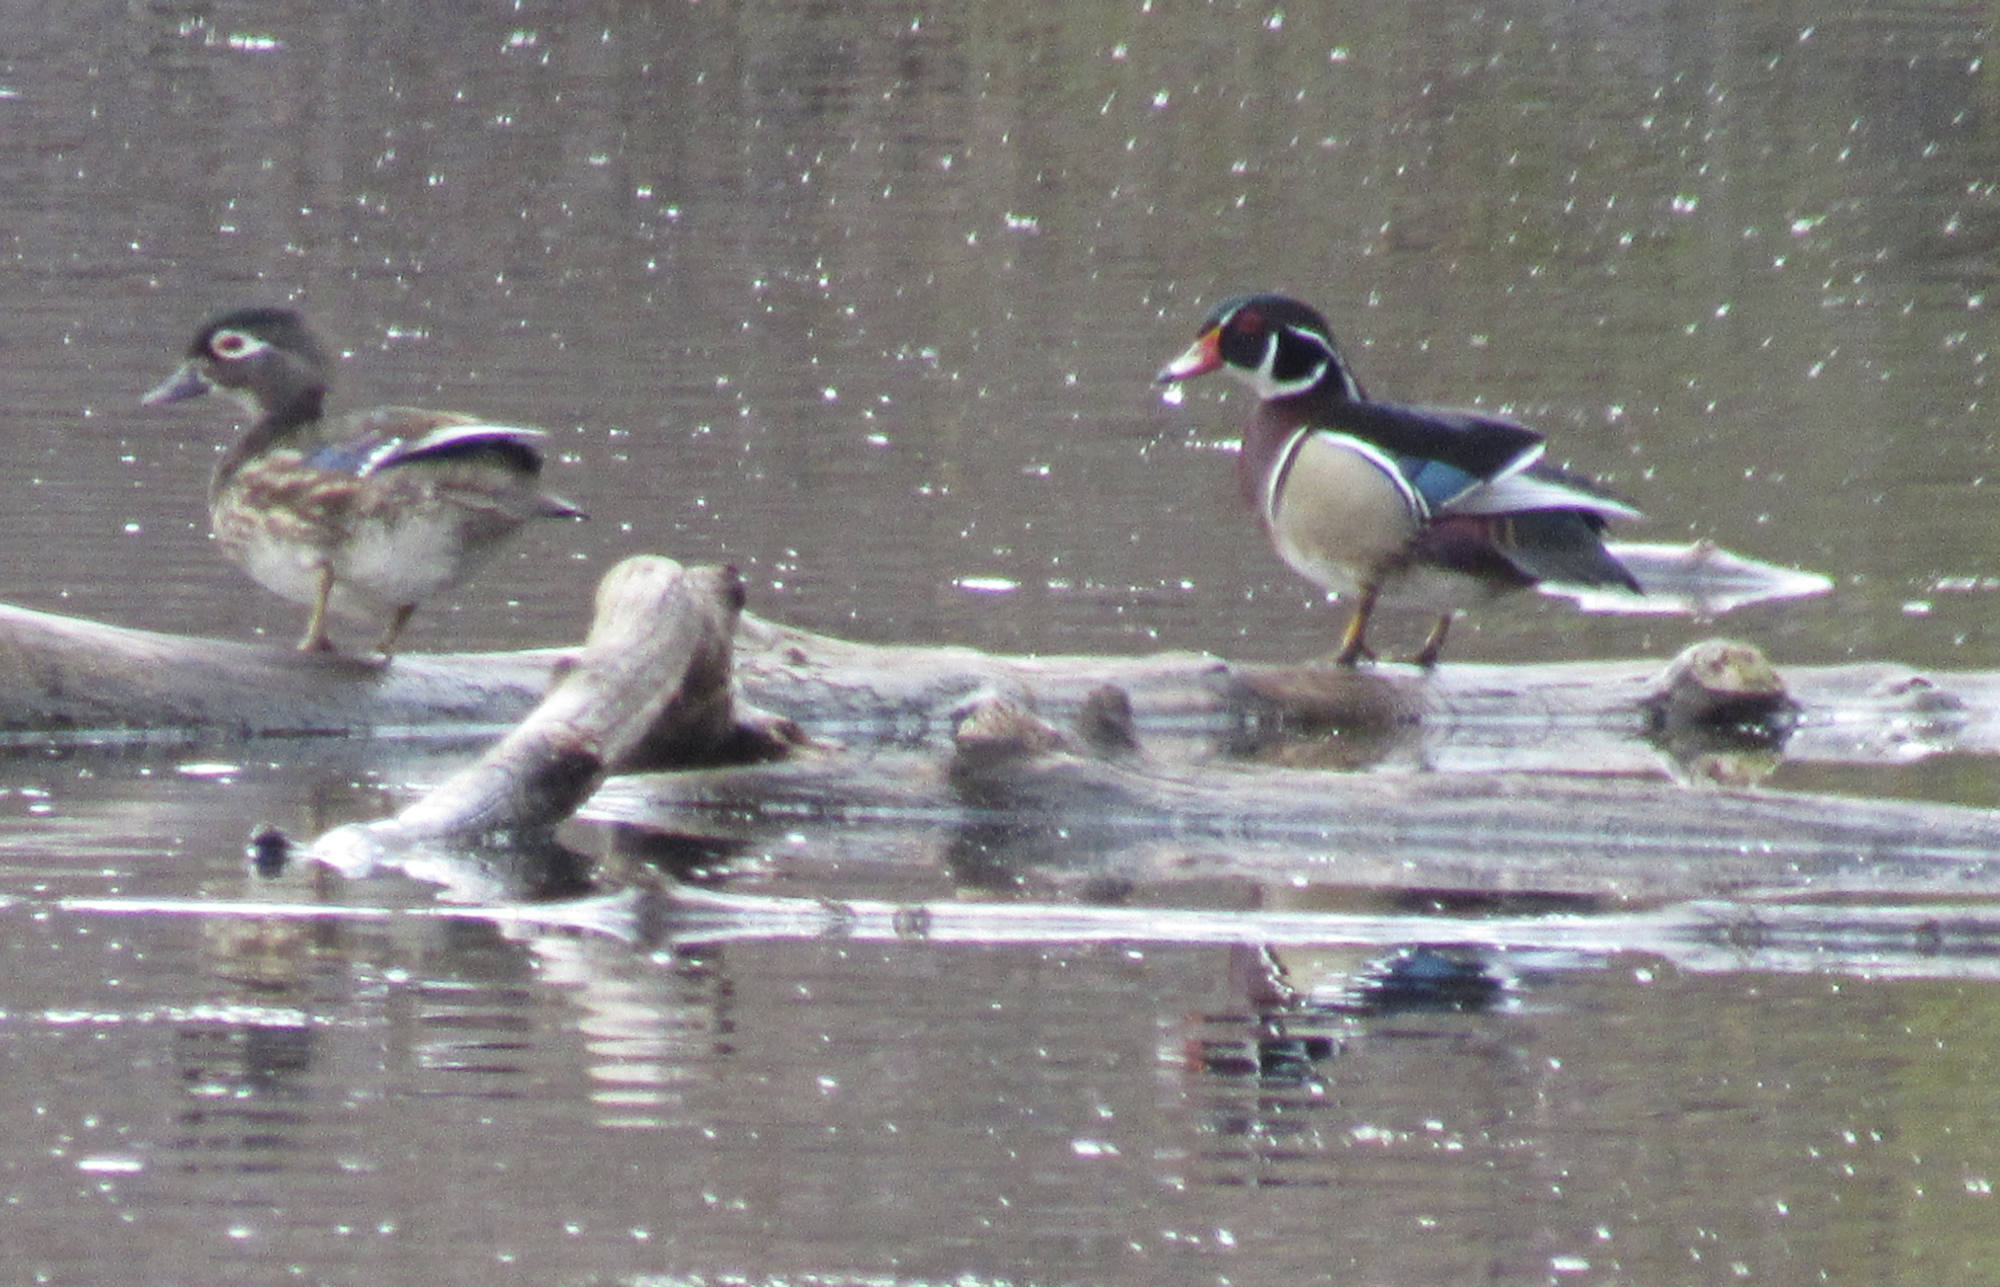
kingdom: Animalia
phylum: Chordata
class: Aves
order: Anseriformes
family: Anatidae
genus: Aix
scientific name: Aix sponsa
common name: Wood duck
